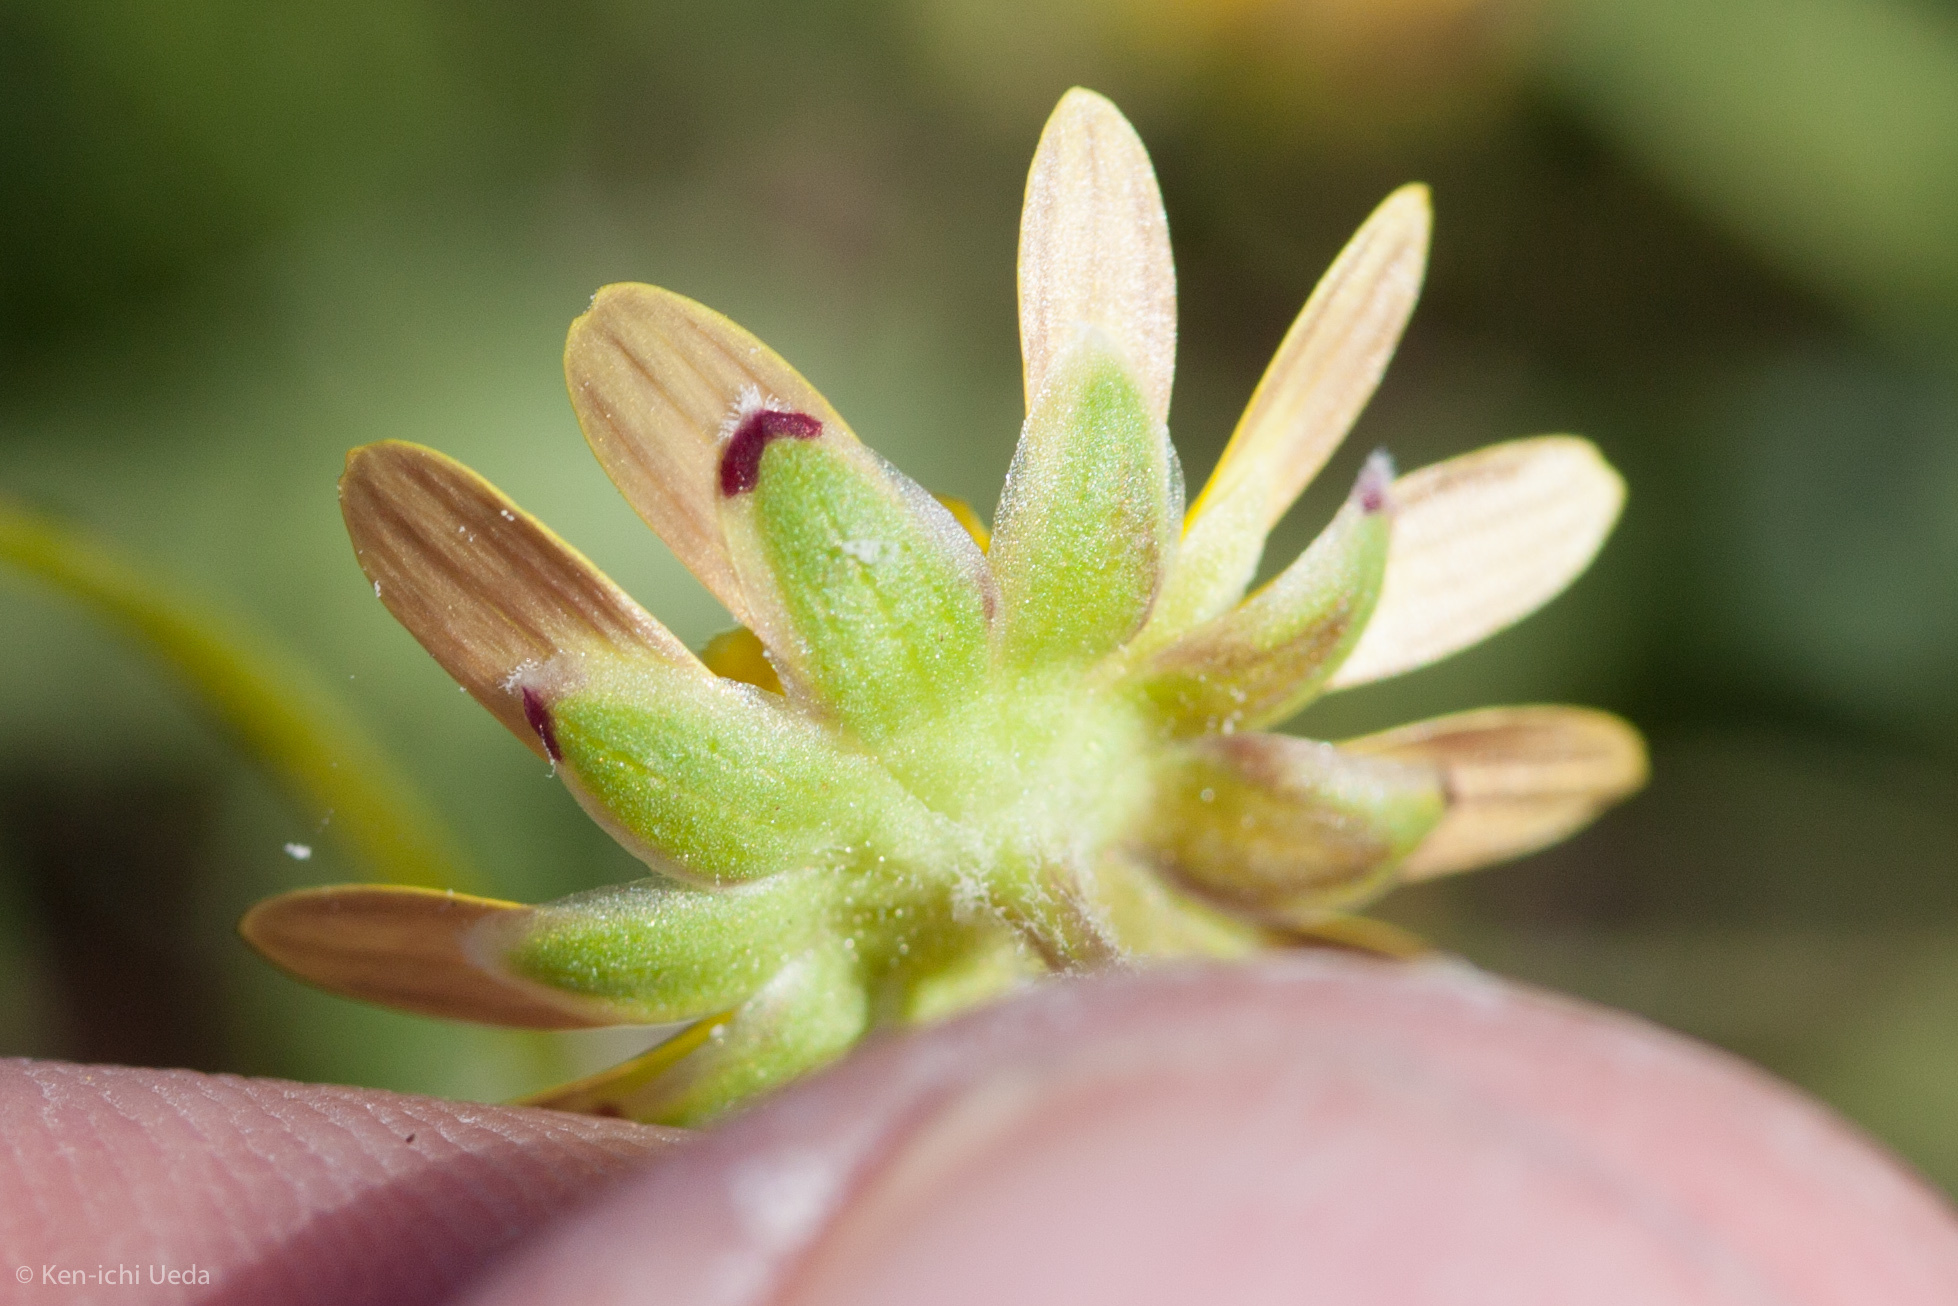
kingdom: Plantae
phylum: Tracheophyta
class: Magnoliopsida
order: Asterales
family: Asteraceae
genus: Blennosperma
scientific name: Blennosperma nanum
